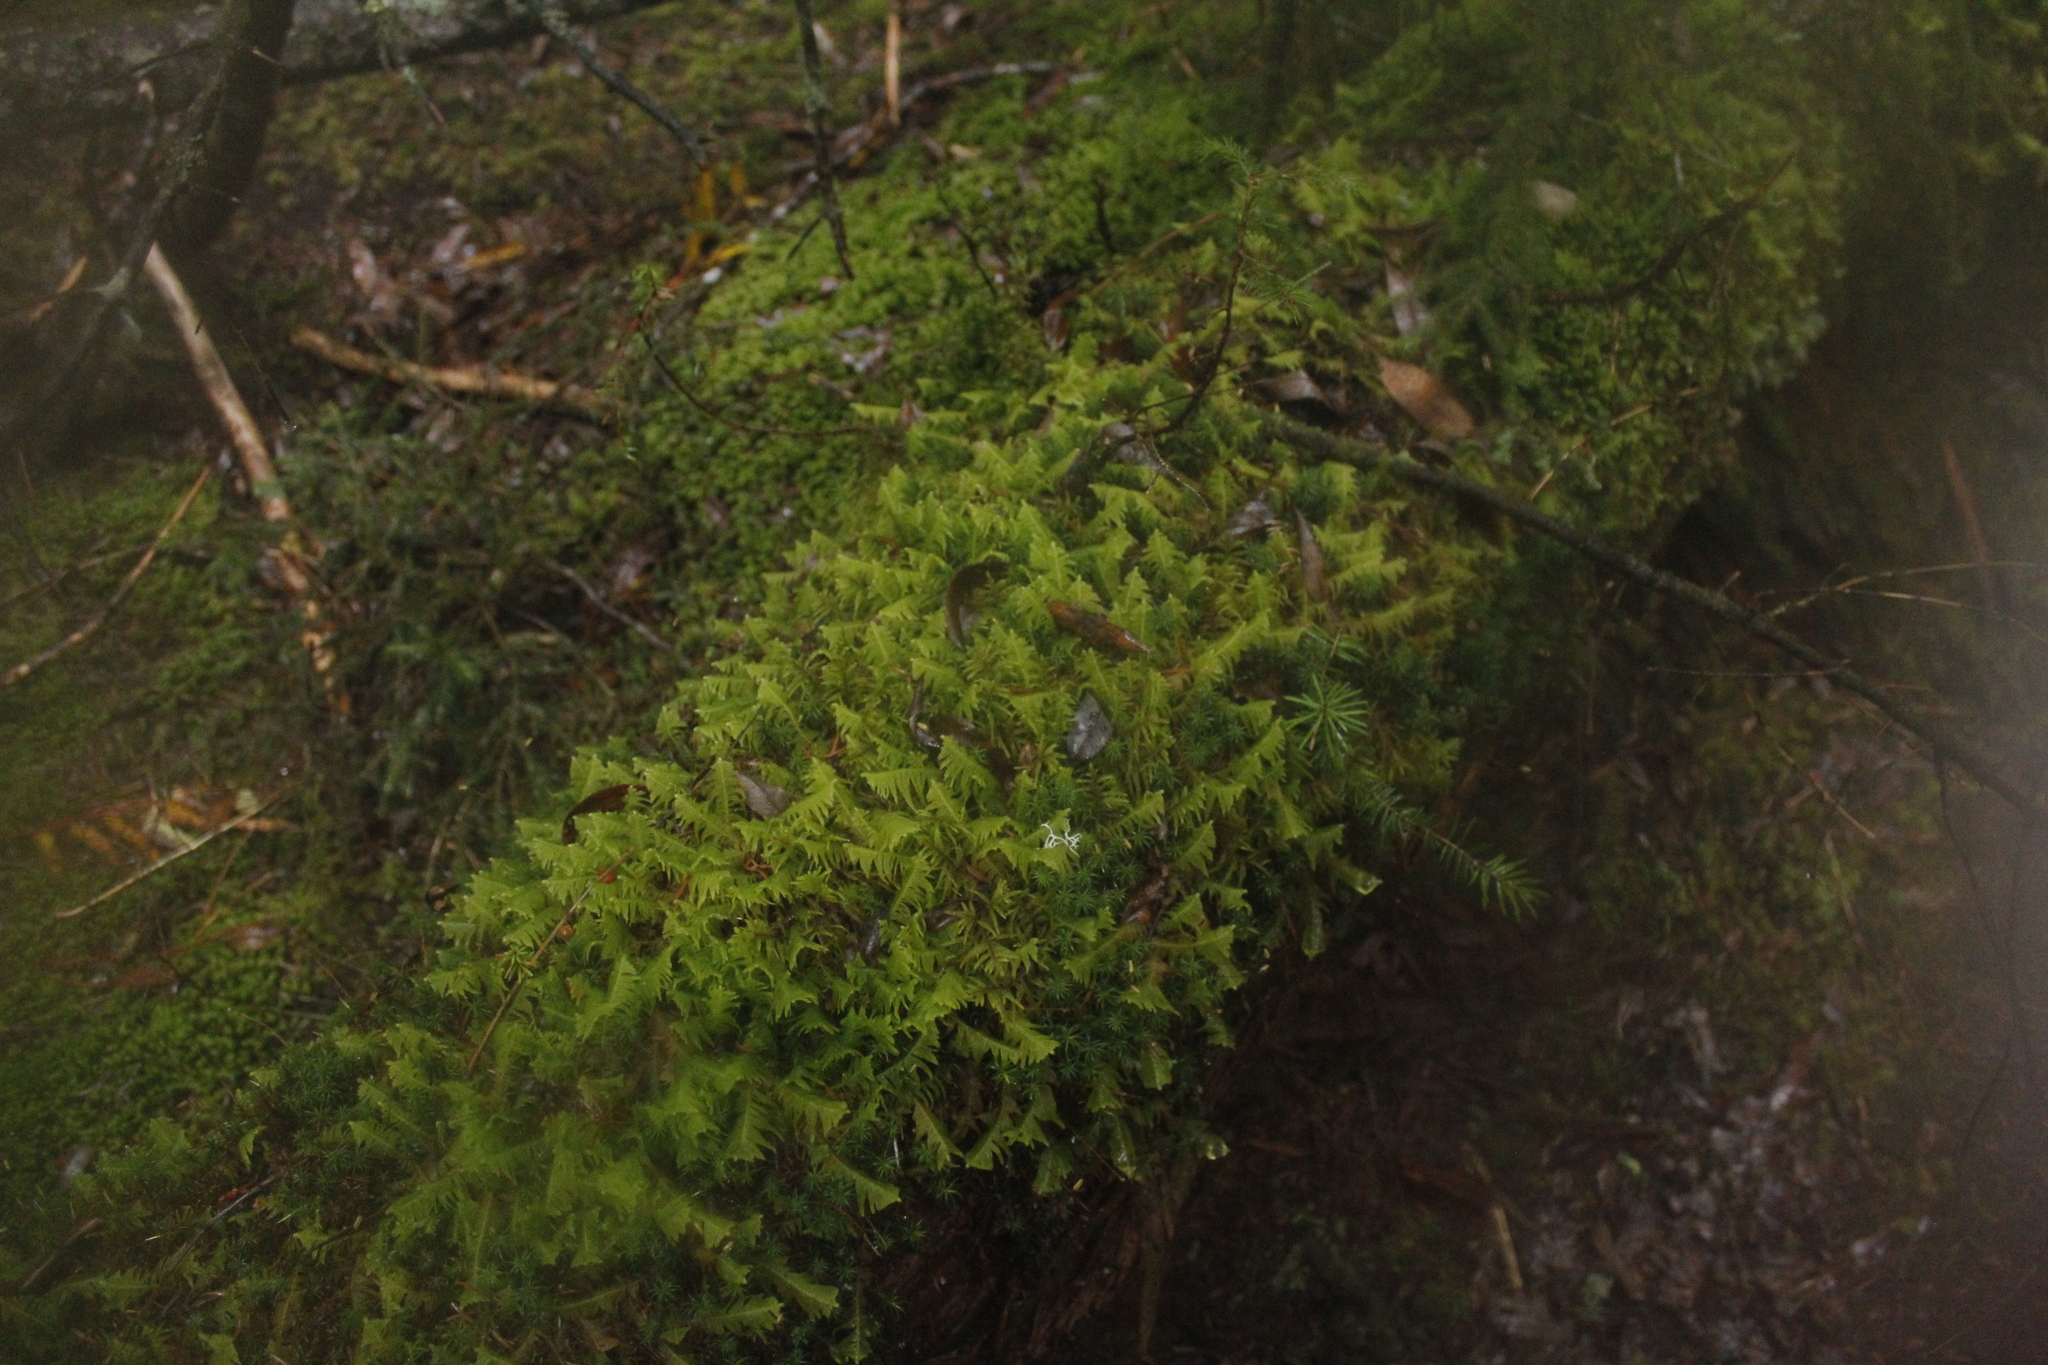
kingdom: Plantae
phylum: Bryophyta
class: Bryopsida
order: Hypnales
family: Pylaisiaceae
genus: Ptilium
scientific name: Ptilium crista-castrensis
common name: Knight's plume moss
